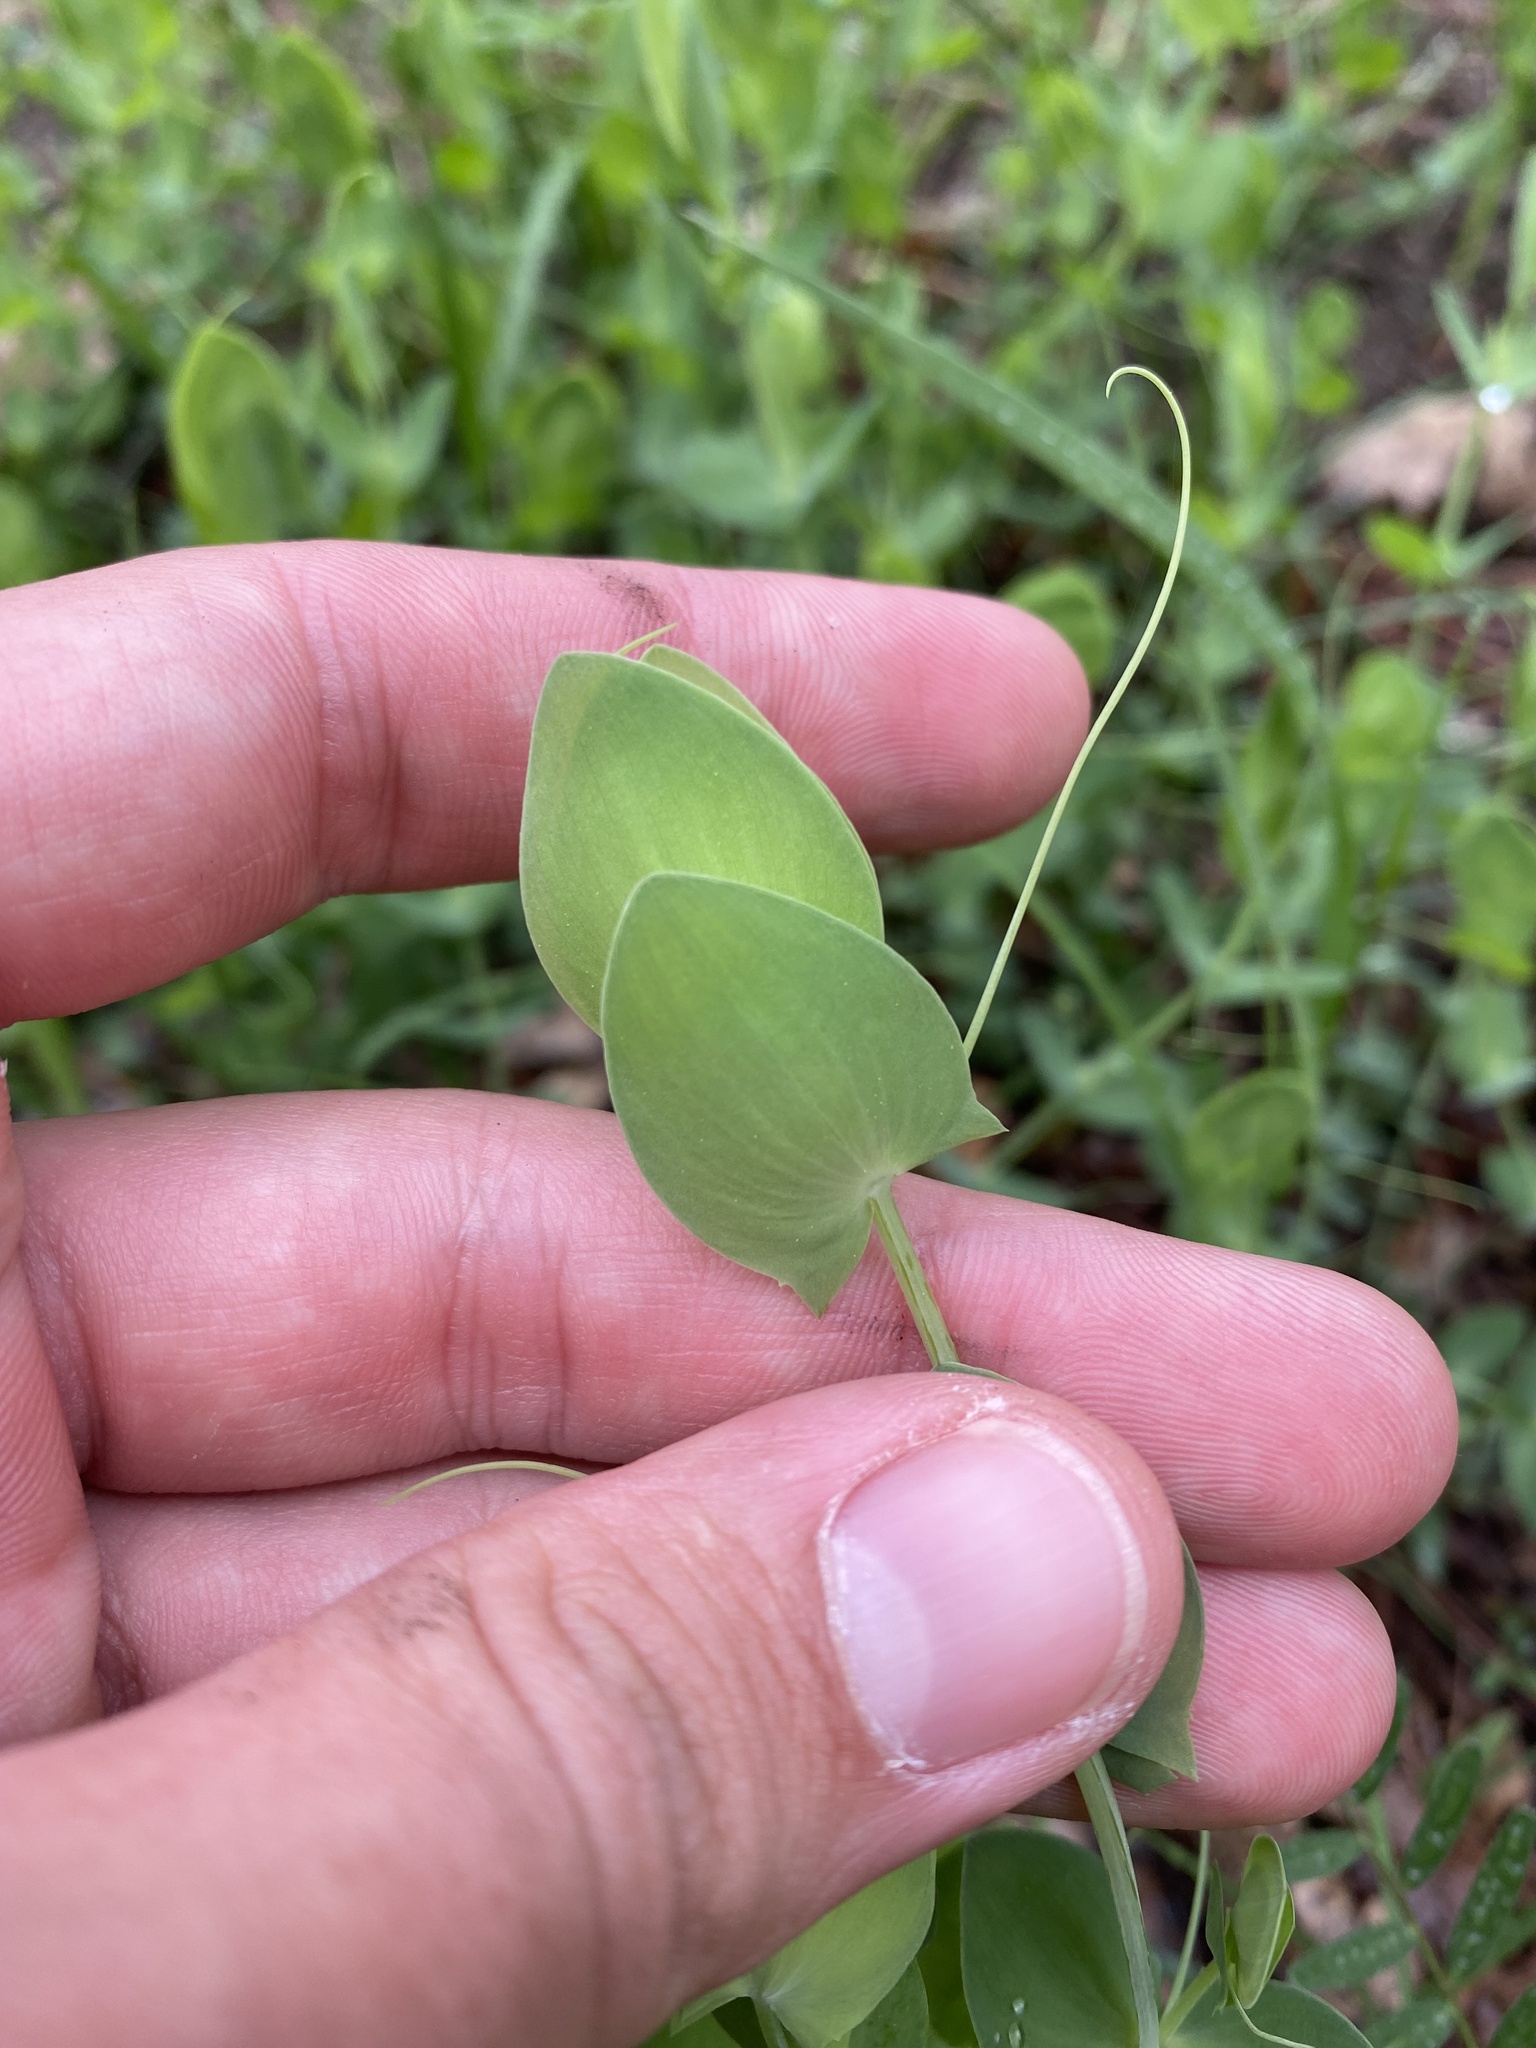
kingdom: Plantae
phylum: Tracheophyta
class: Magnoliopsida
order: Fabales
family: Fabaceae
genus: Lathyrus
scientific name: Lathyrus aphaca
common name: Yellow vetchling
